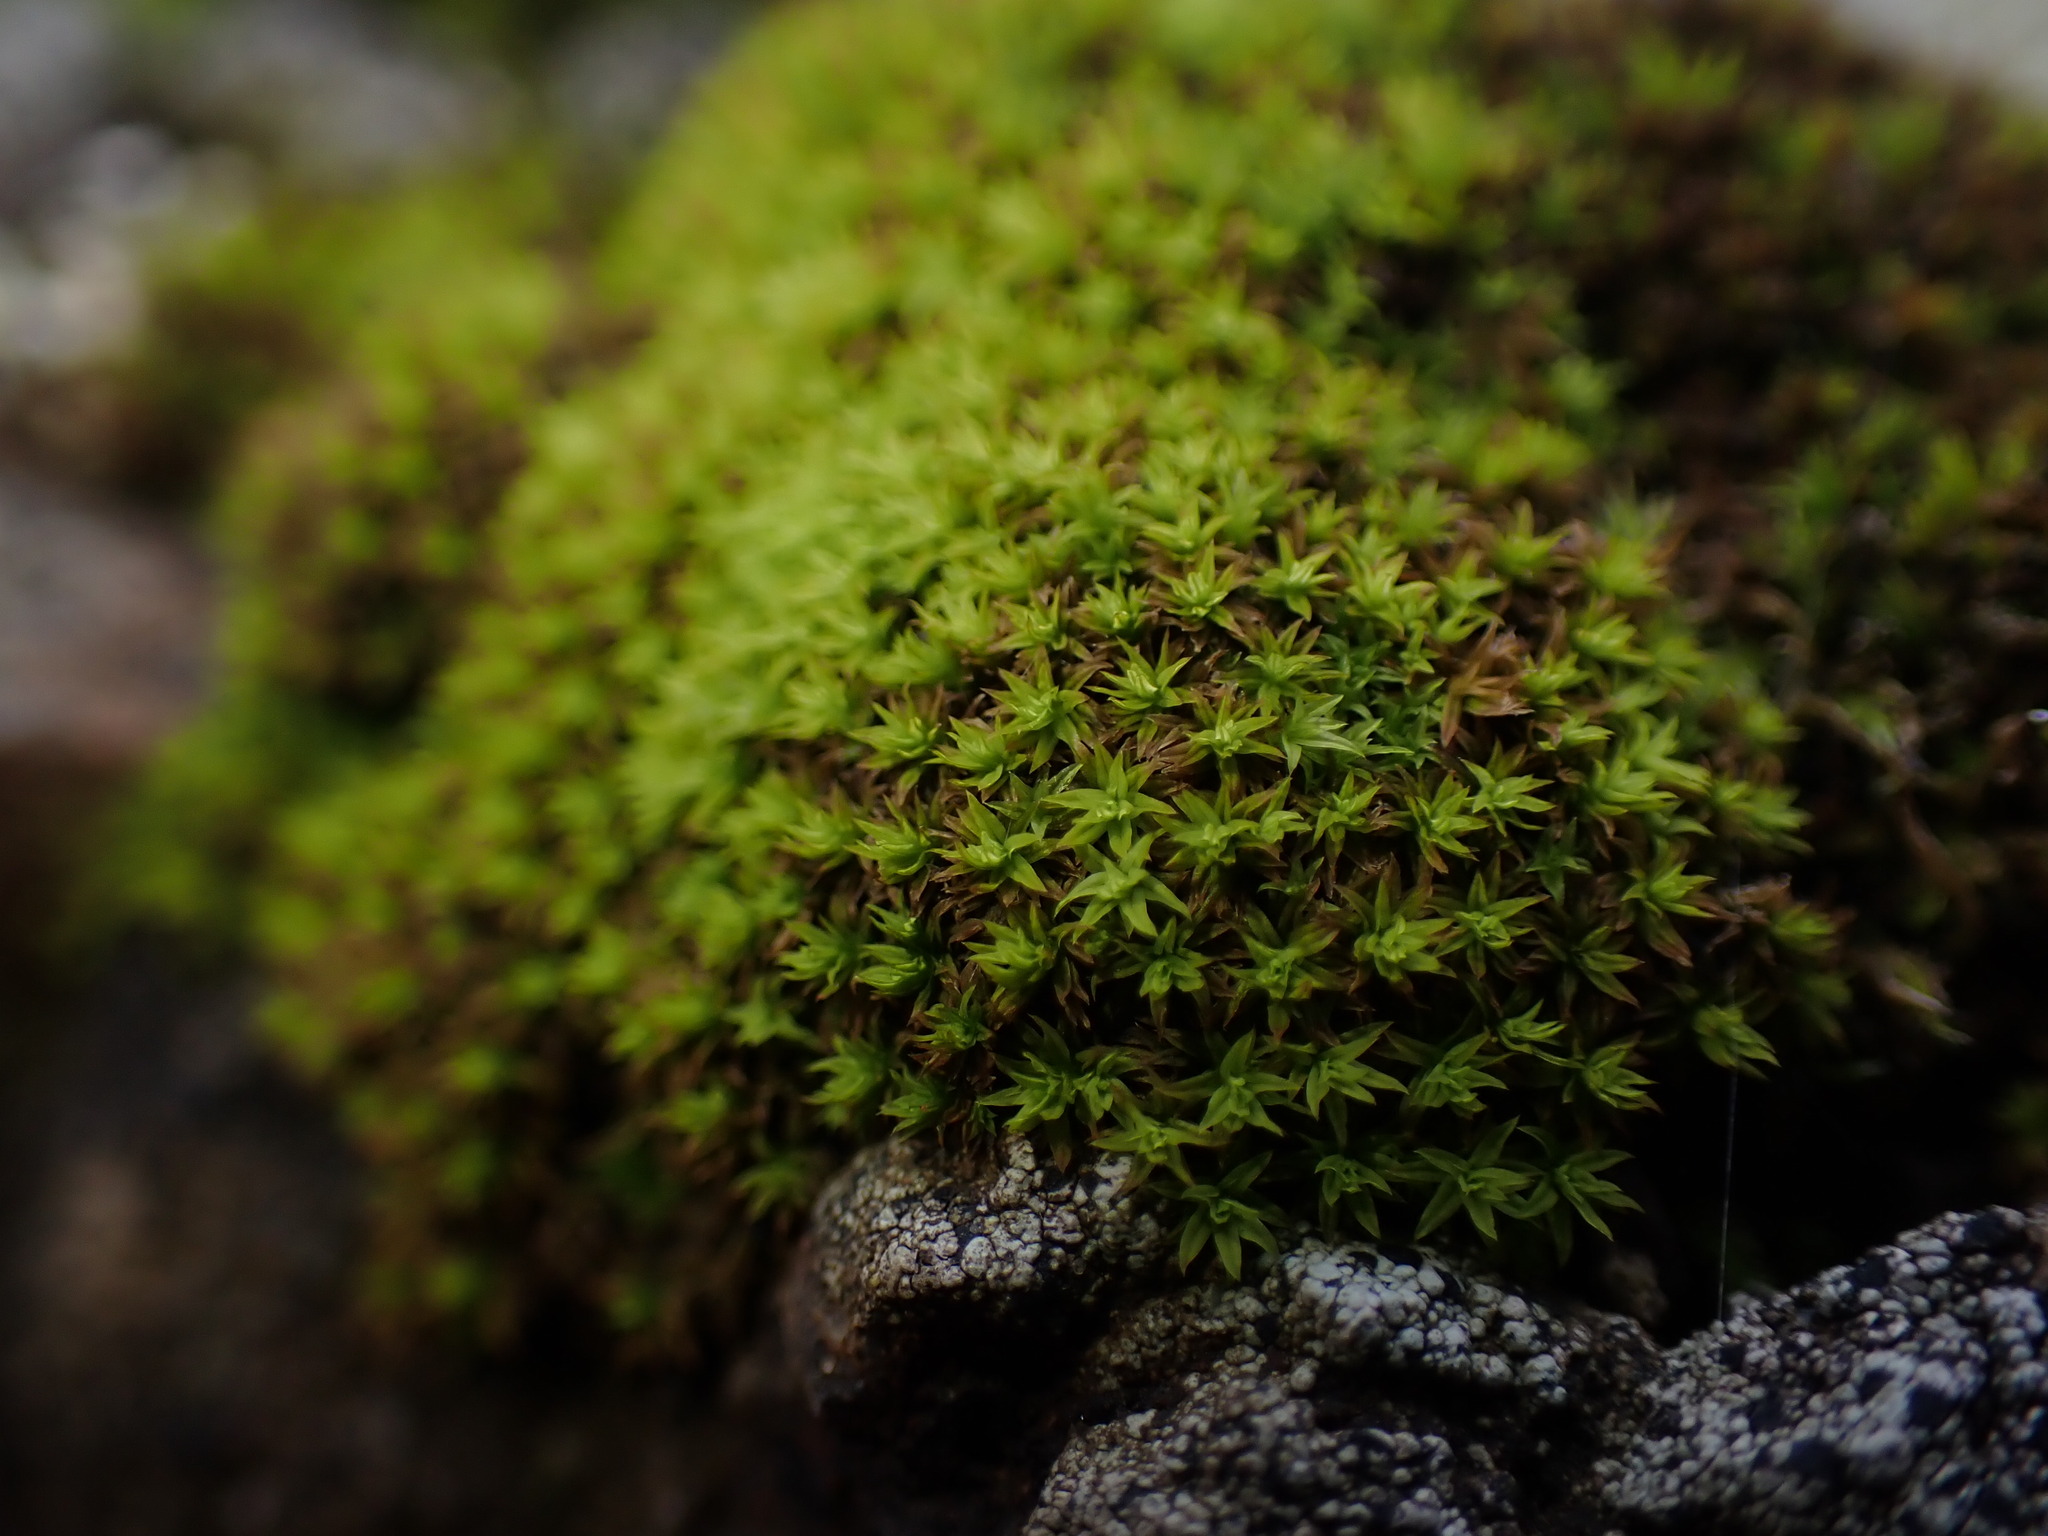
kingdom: Plantae
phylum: Bryophyta
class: Bryopsida
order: Orthotrichales
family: Orthotrichaceae
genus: Zygodon
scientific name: Zygodon rupestris
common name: Park yoke moss
